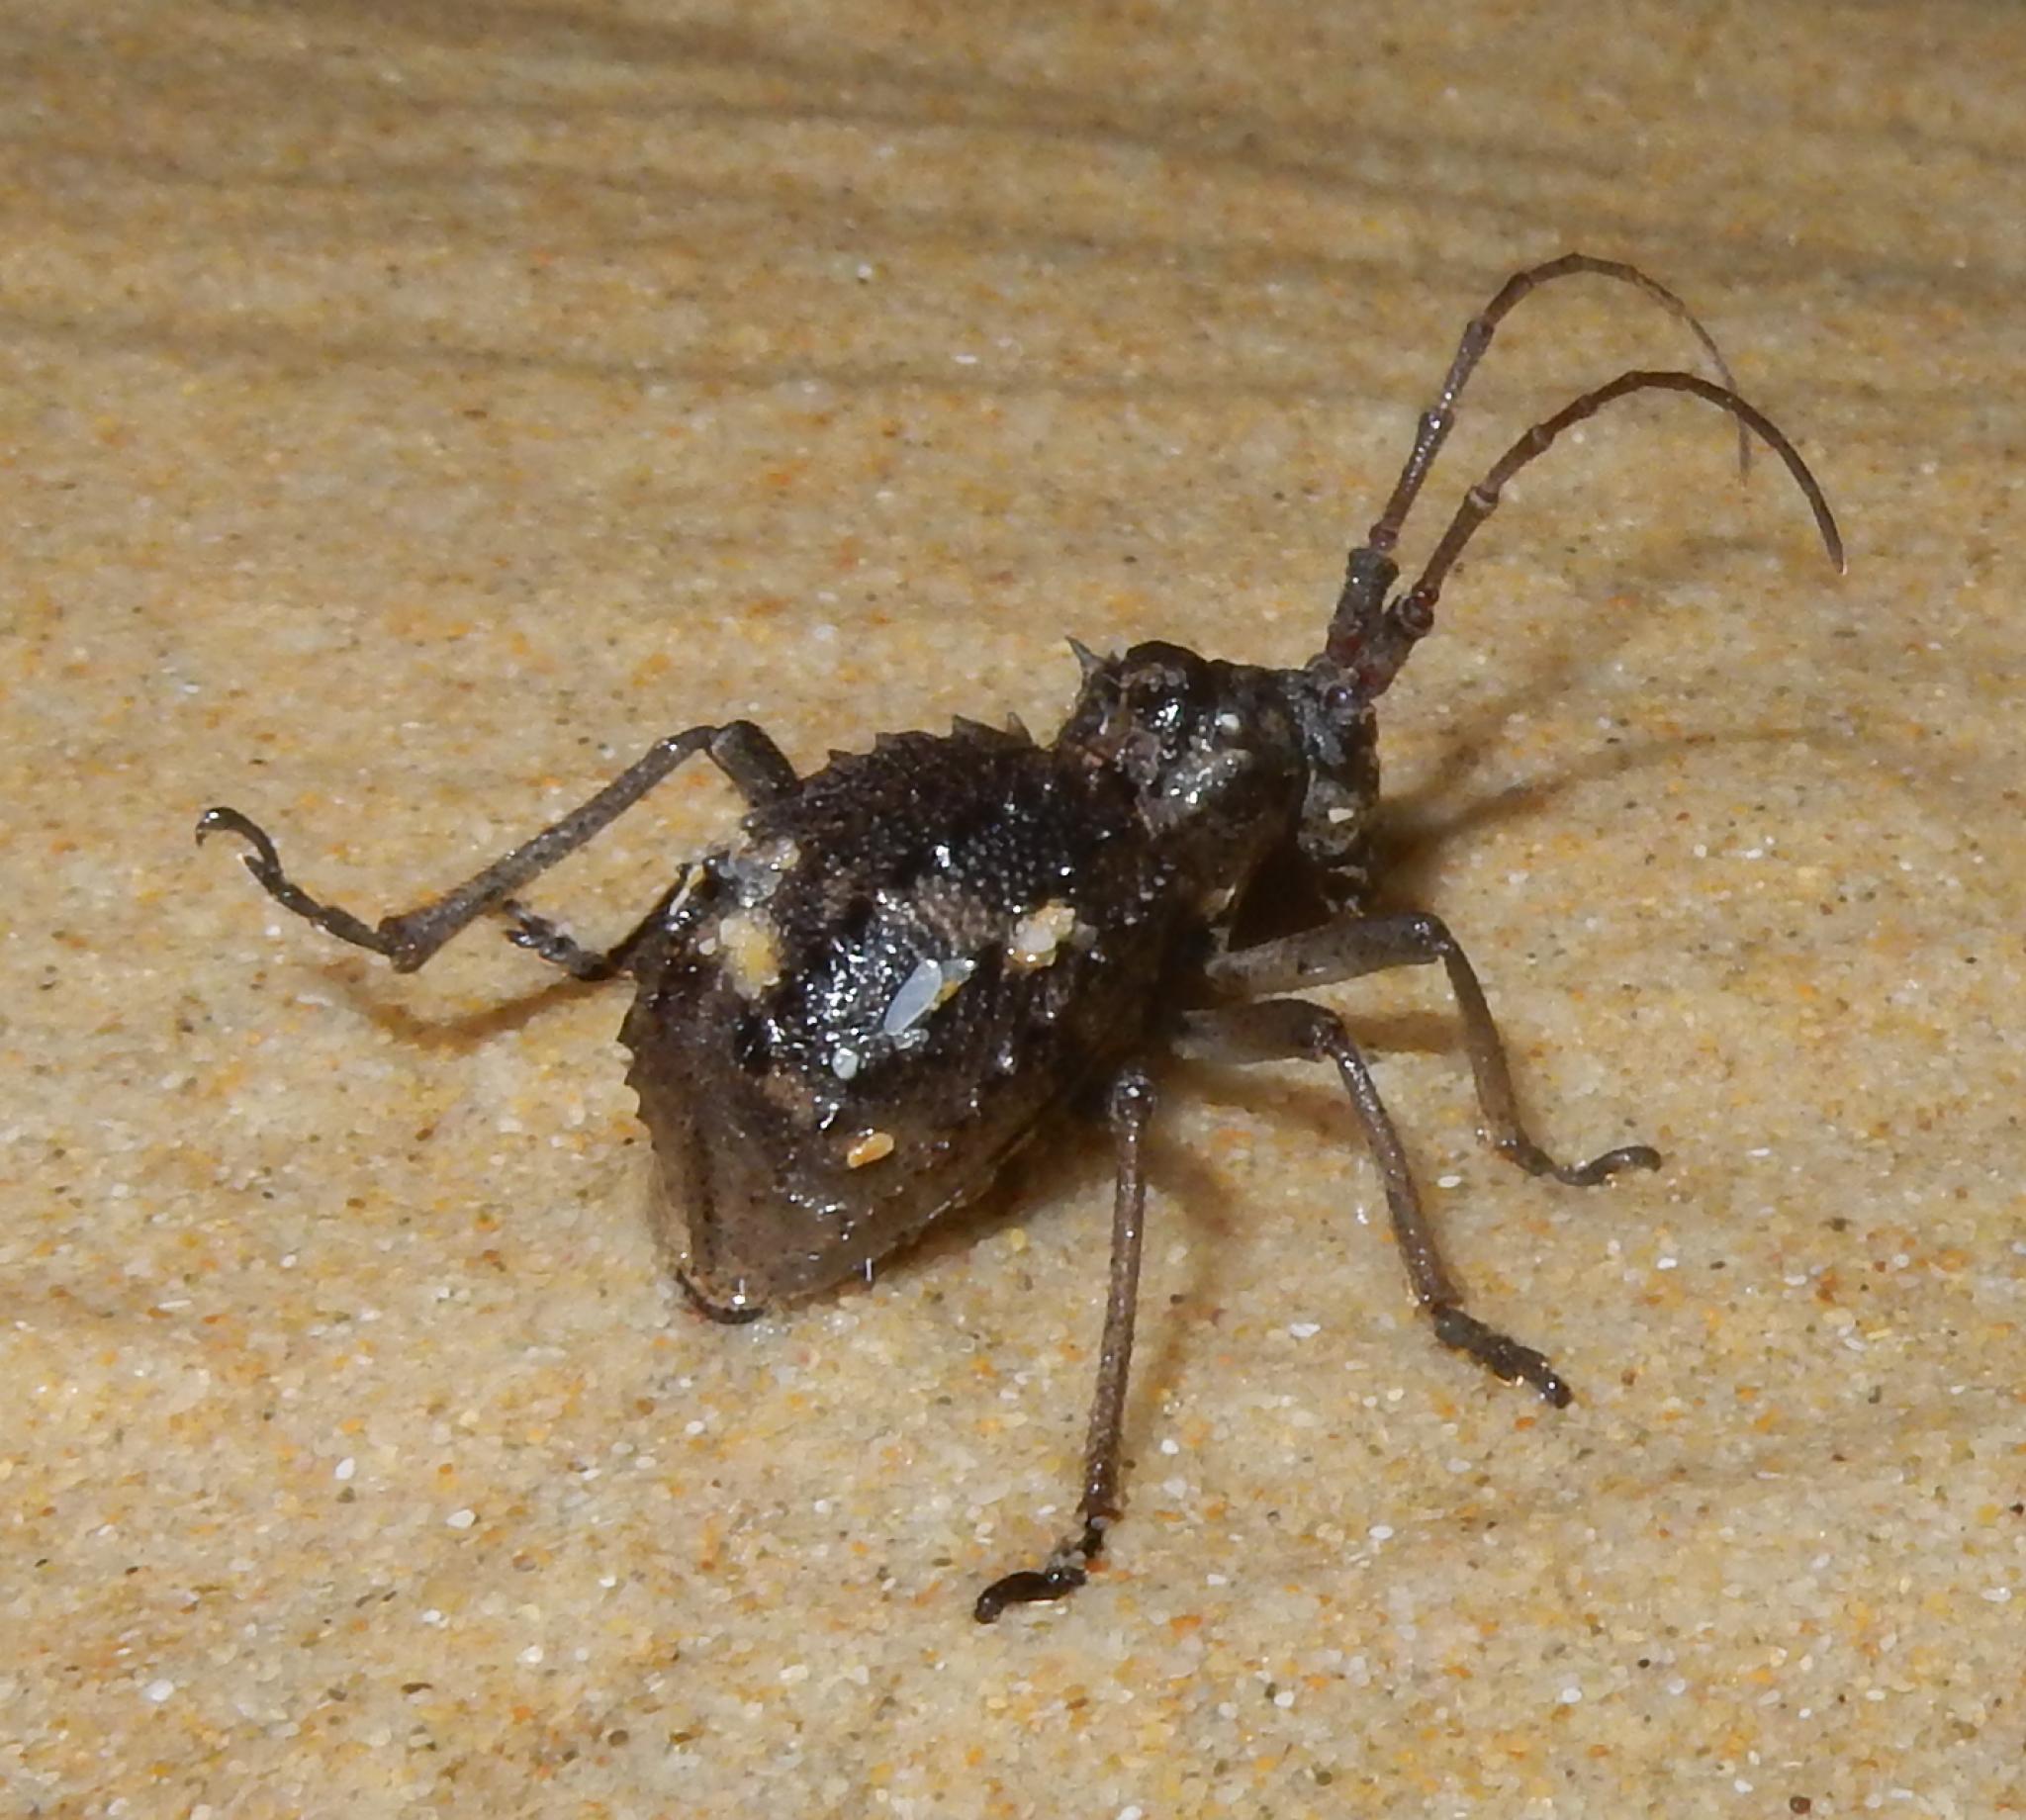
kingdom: Animalia
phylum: Arthropoda
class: Insecta
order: Coleoptera
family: Cerambycidae
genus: Acanthesthes
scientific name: Acanthesthes amycteroides
